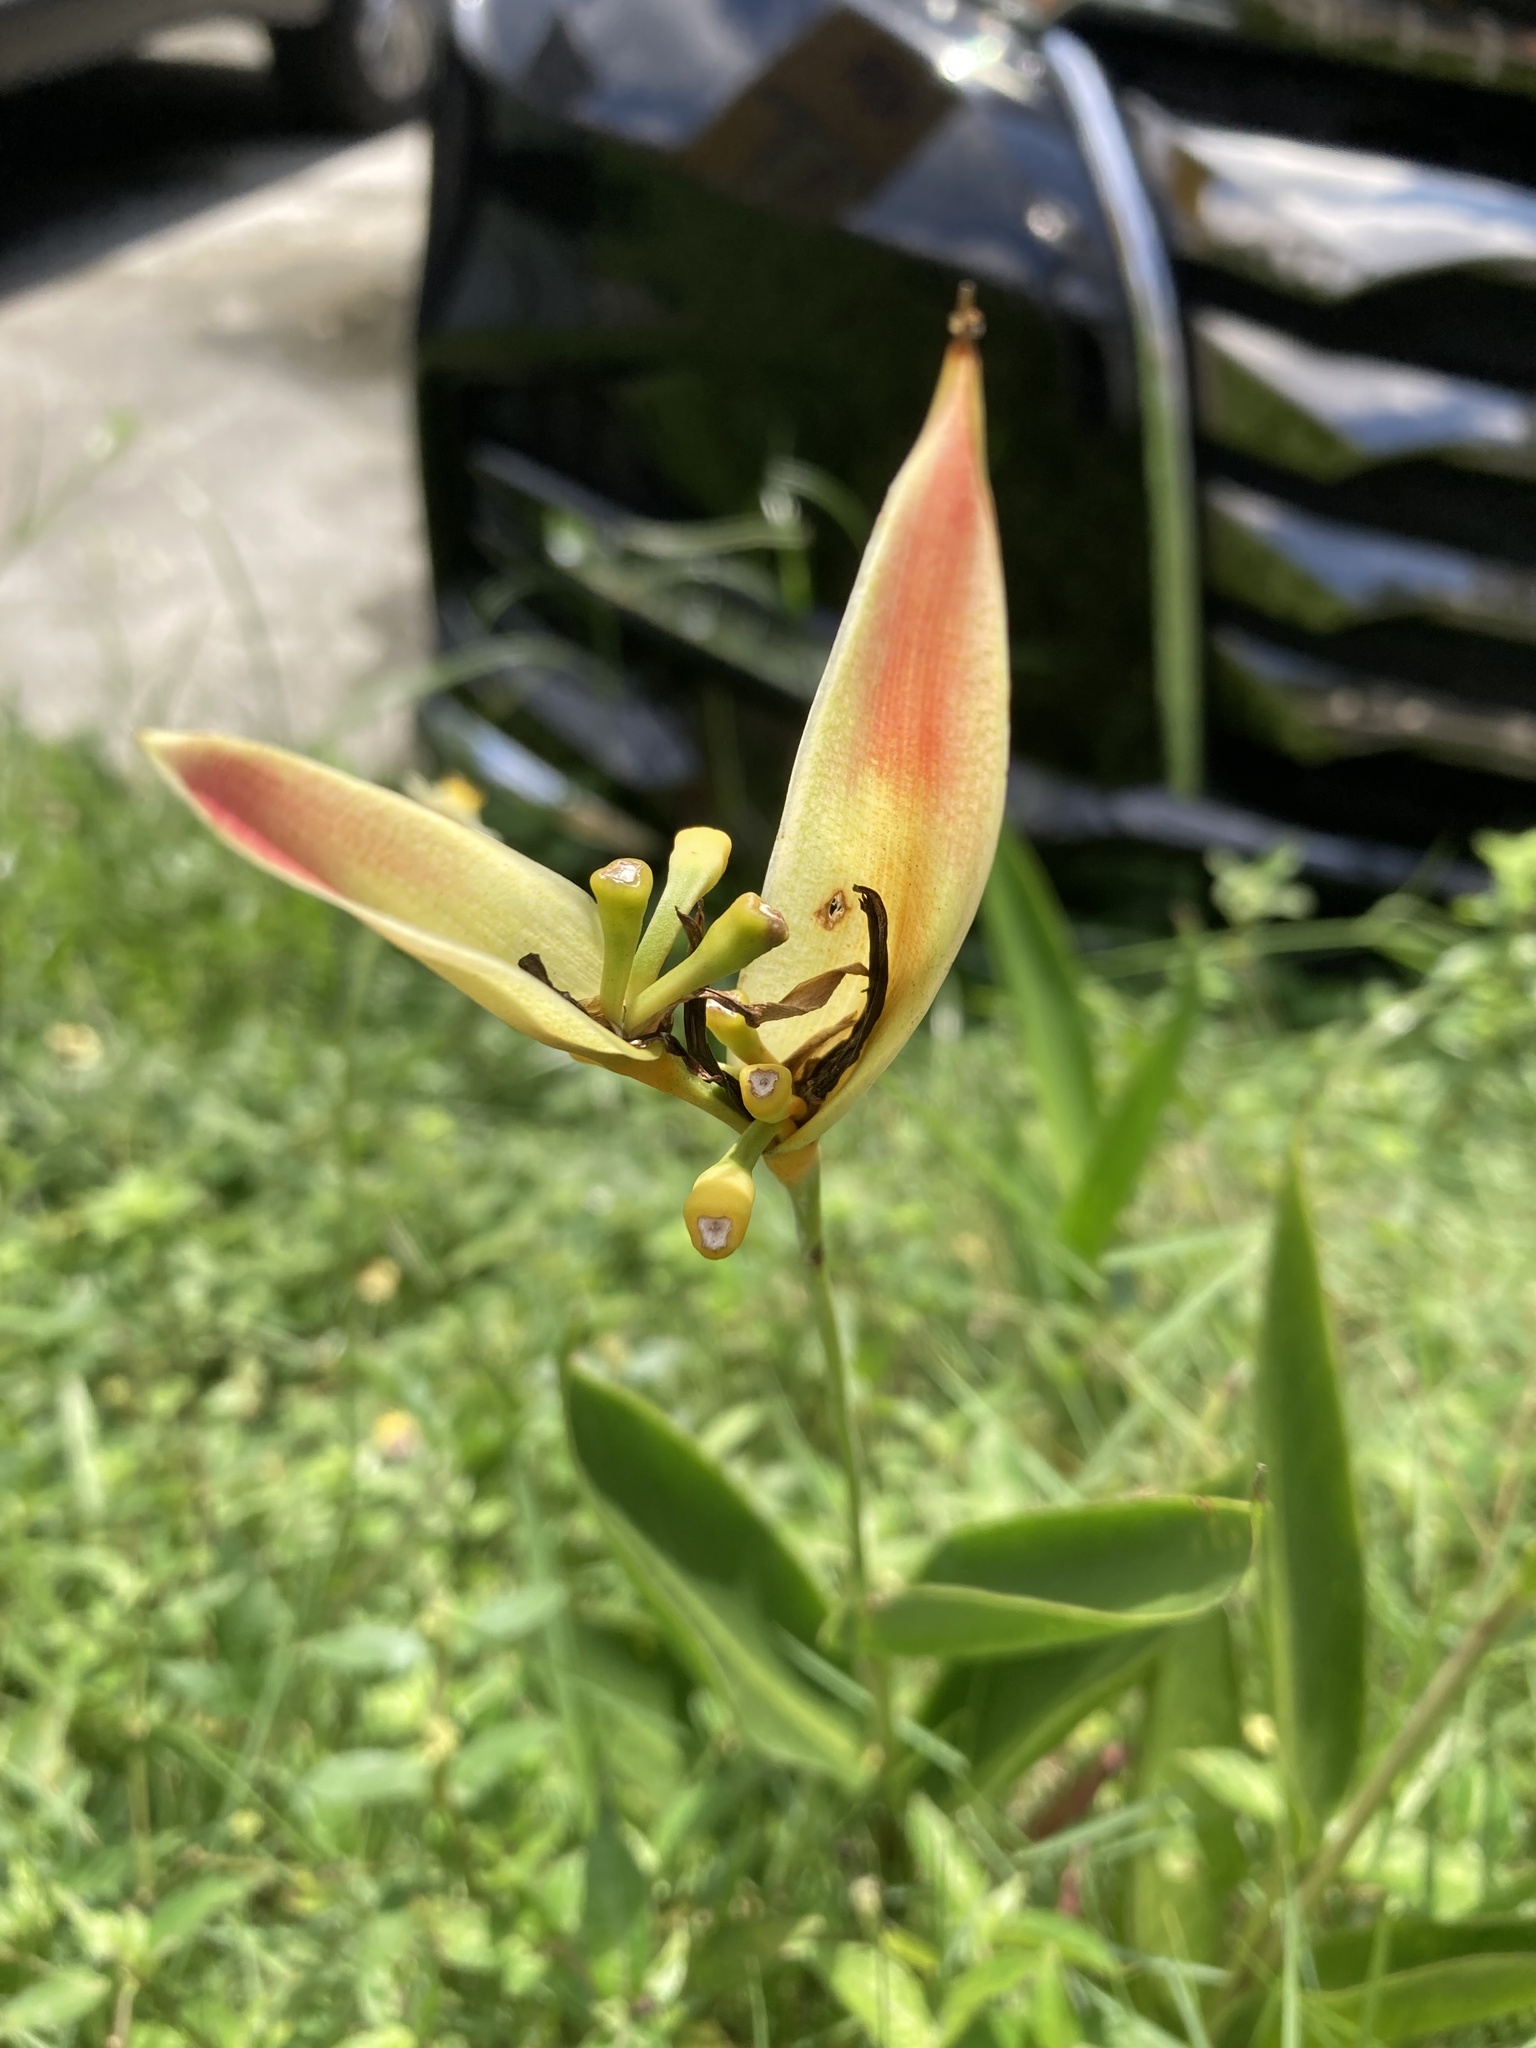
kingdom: Plantae
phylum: Tracheophyta
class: Liliopsida
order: Zingiberales
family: Heliconiaceae
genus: Heliconia
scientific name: Heliconia psittacorum
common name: Parrot's-flower
